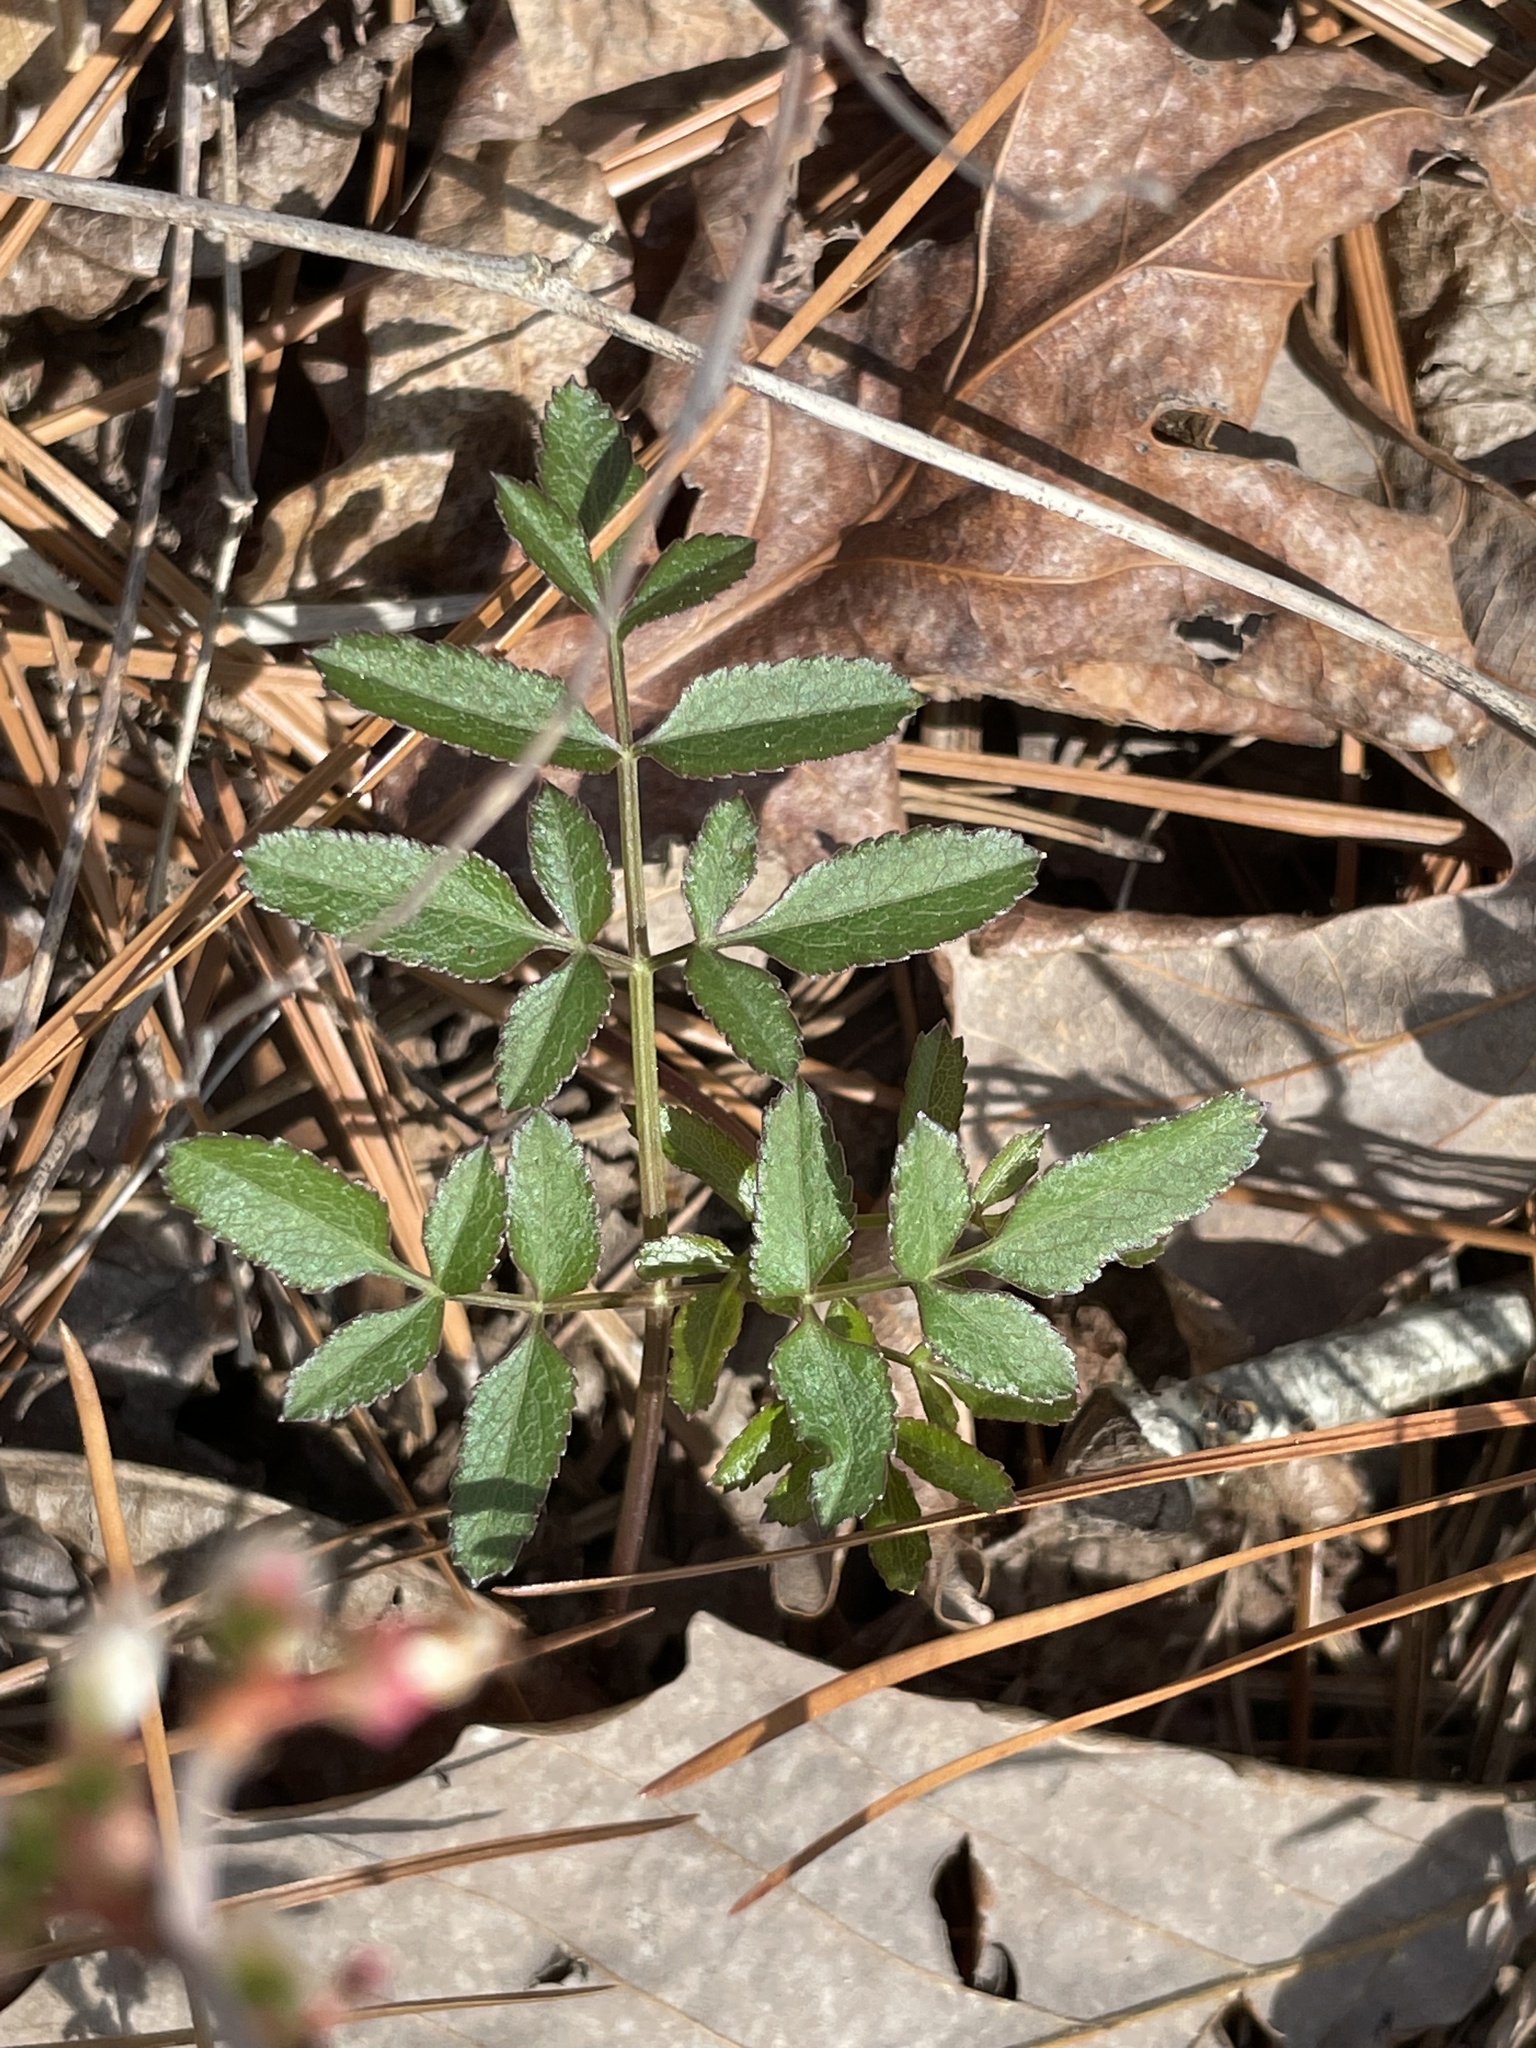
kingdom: Plantae
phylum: Tracheophyta
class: Magnoliopsida
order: Apiales
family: Apiaceae
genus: Angelica
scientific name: Angelica venenosa
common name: Hairy angelica
